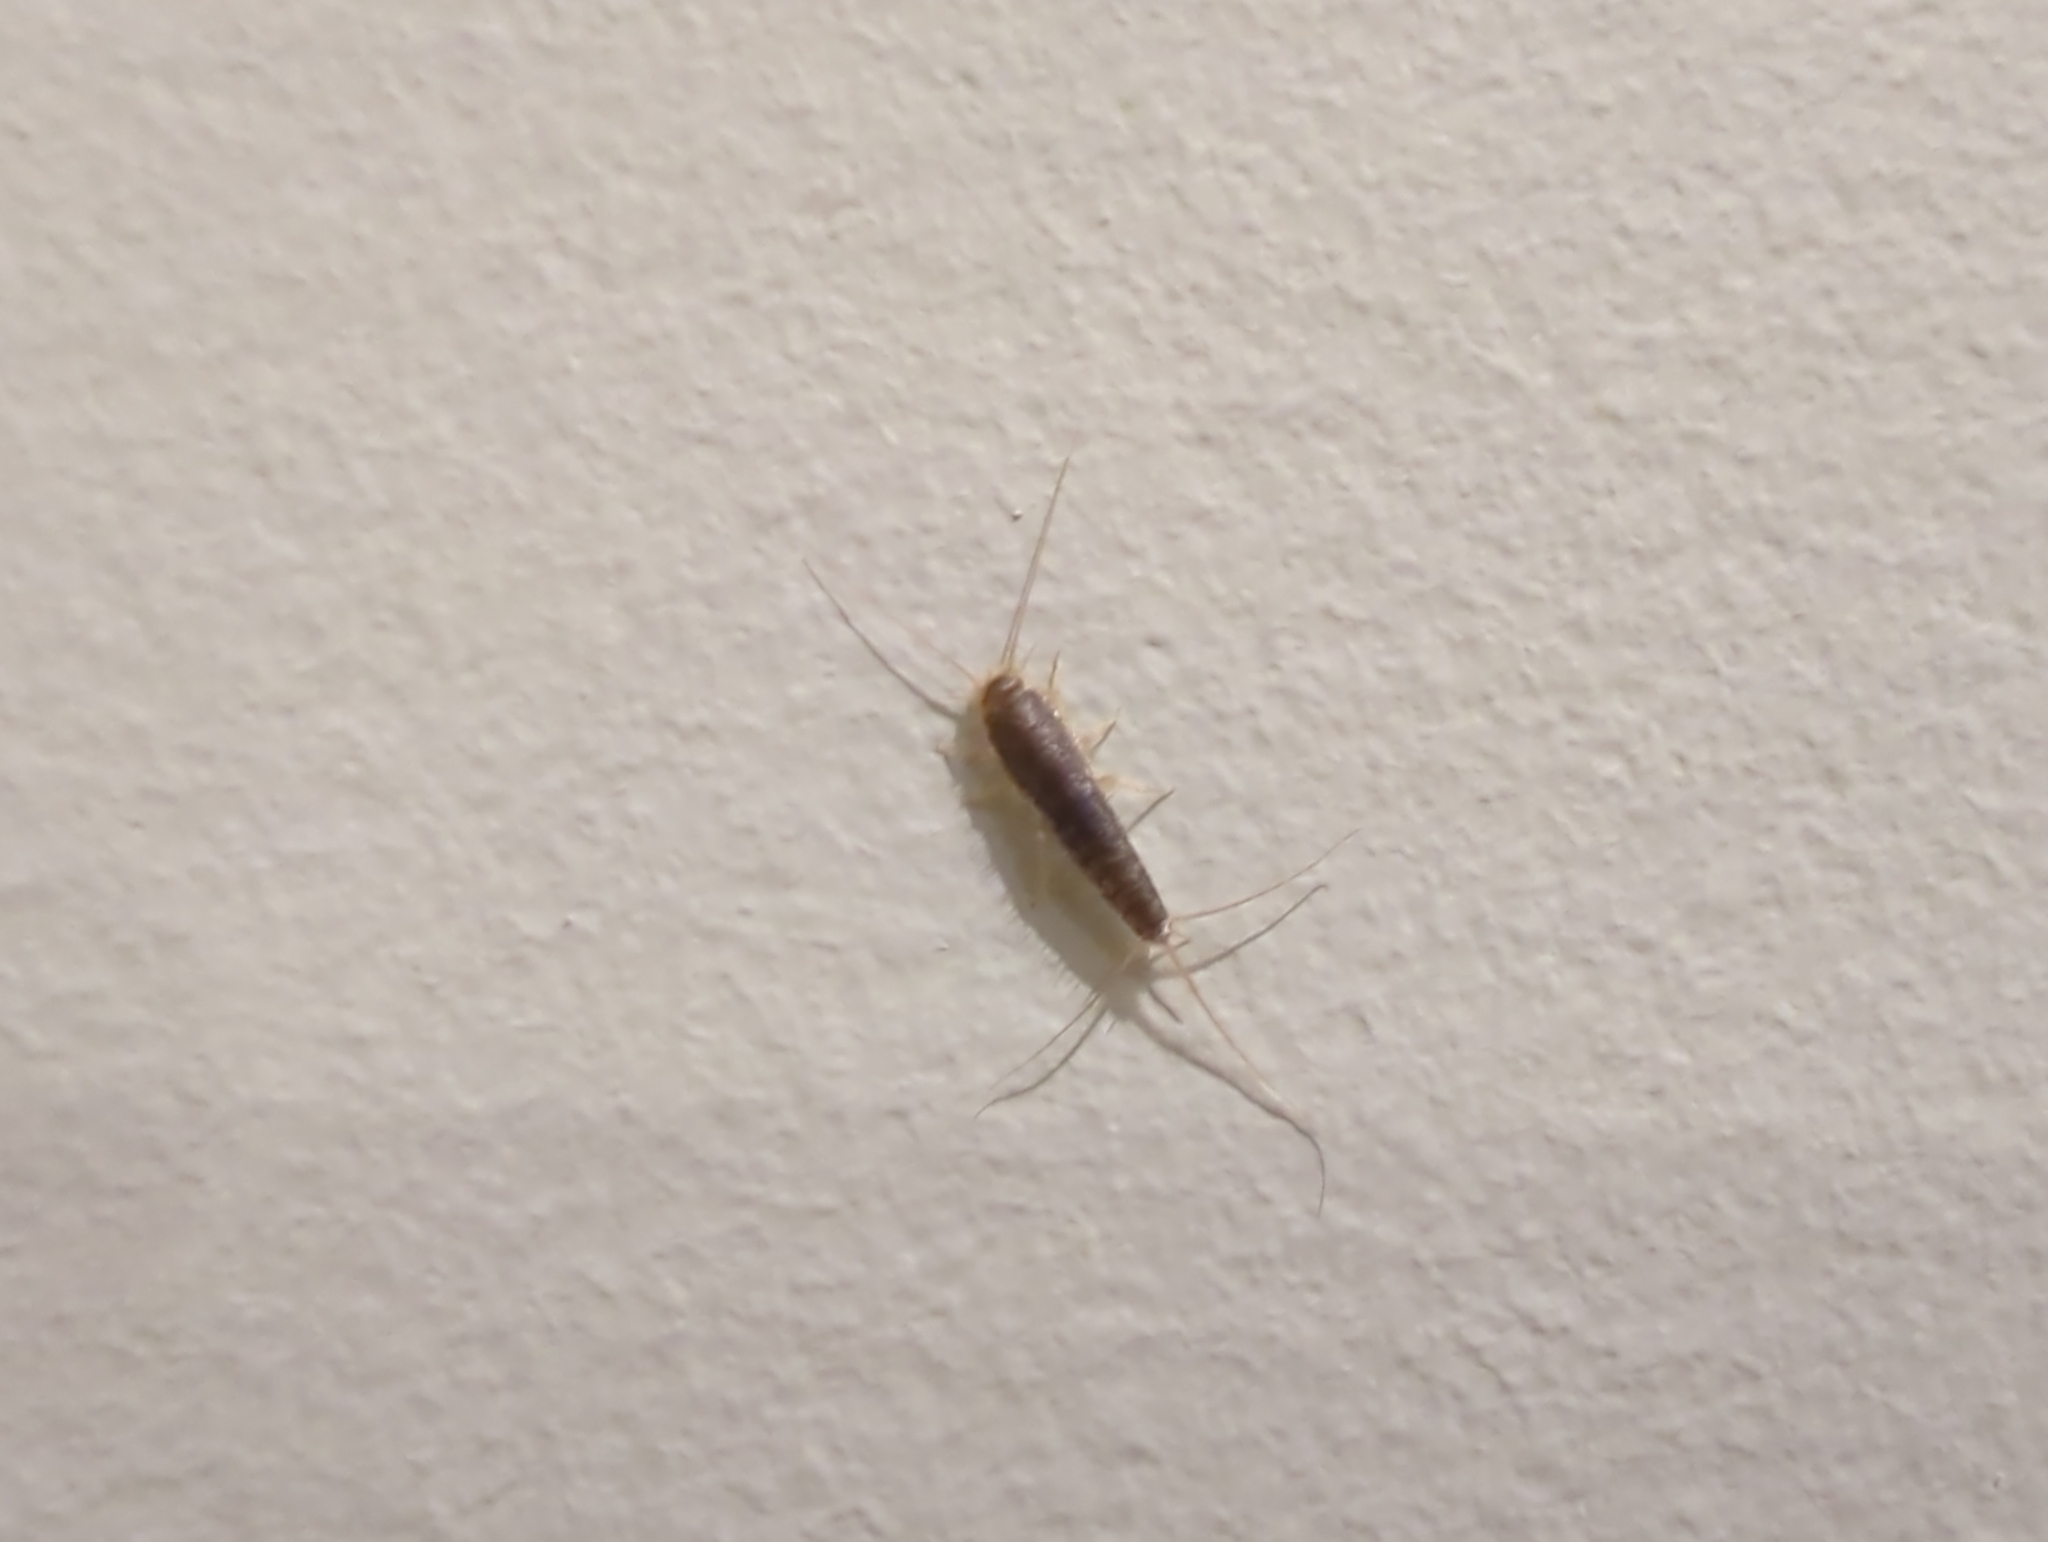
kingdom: Animalia
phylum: Arthropoda
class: Insecta
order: Zygentoma
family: Lepismatidae
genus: Ctenolepisma
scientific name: Ctenolepisma longicaudatum
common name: Silverfish
